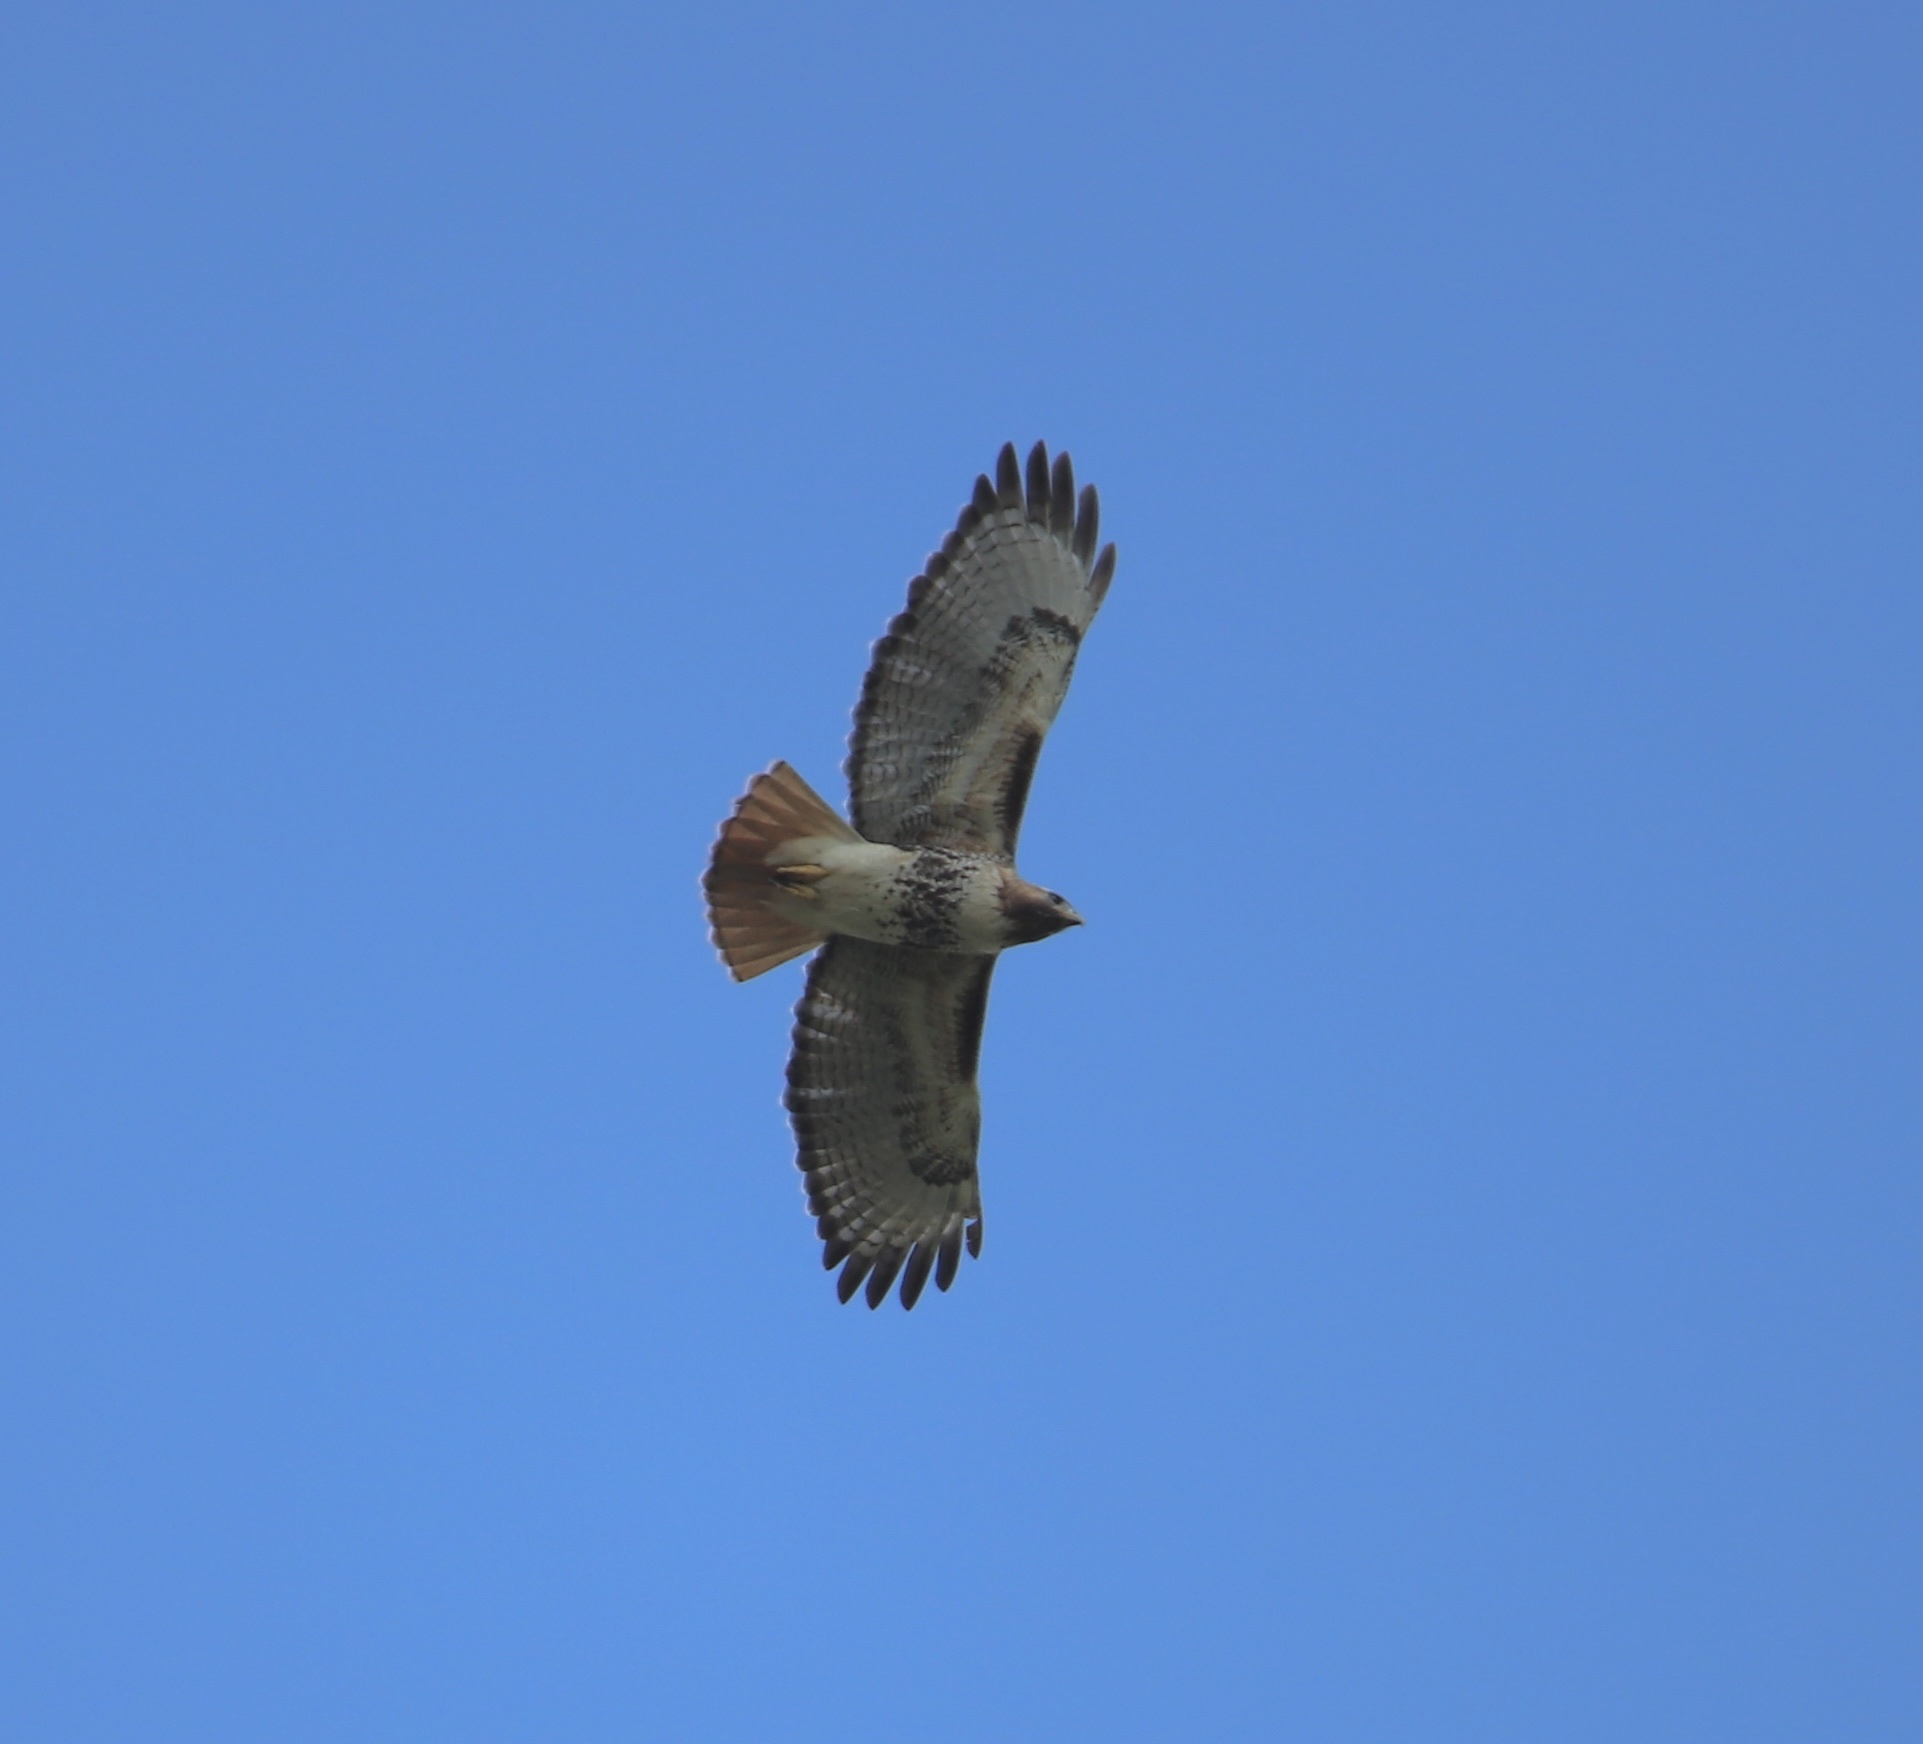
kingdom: Animalia
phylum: Chordata
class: Aves
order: Accipitriformes
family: Accipitridae
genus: Buteo
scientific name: Buteo jamaicensis
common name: Red-tailed hawk
